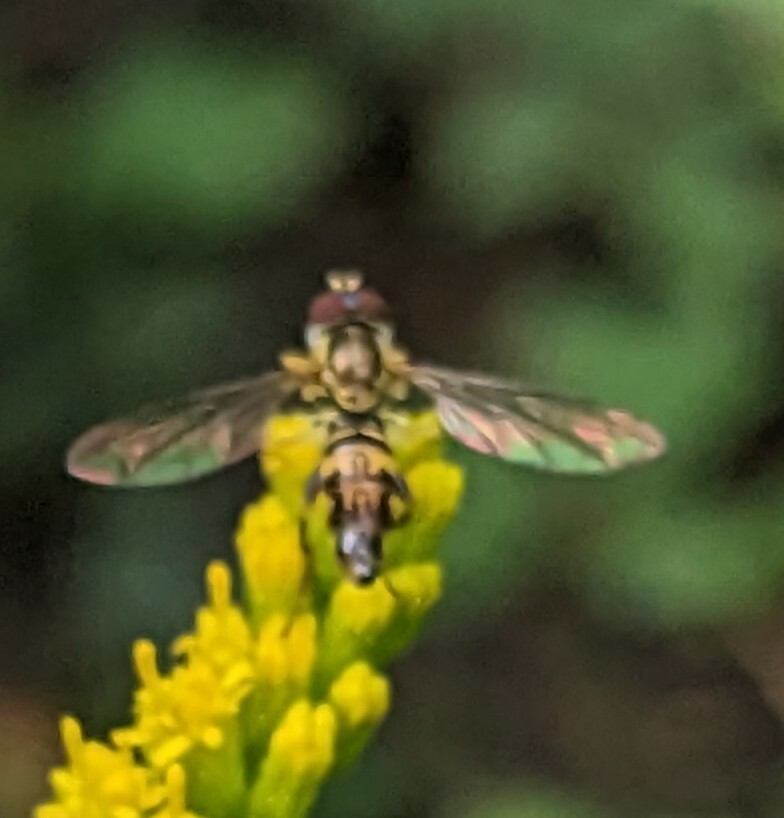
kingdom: Animalia
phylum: Arthropoda
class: Insecta
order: Diptera
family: Syrphidae
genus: Toxomerus
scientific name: Toxomerus geminatus
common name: Eastern calligrapher
